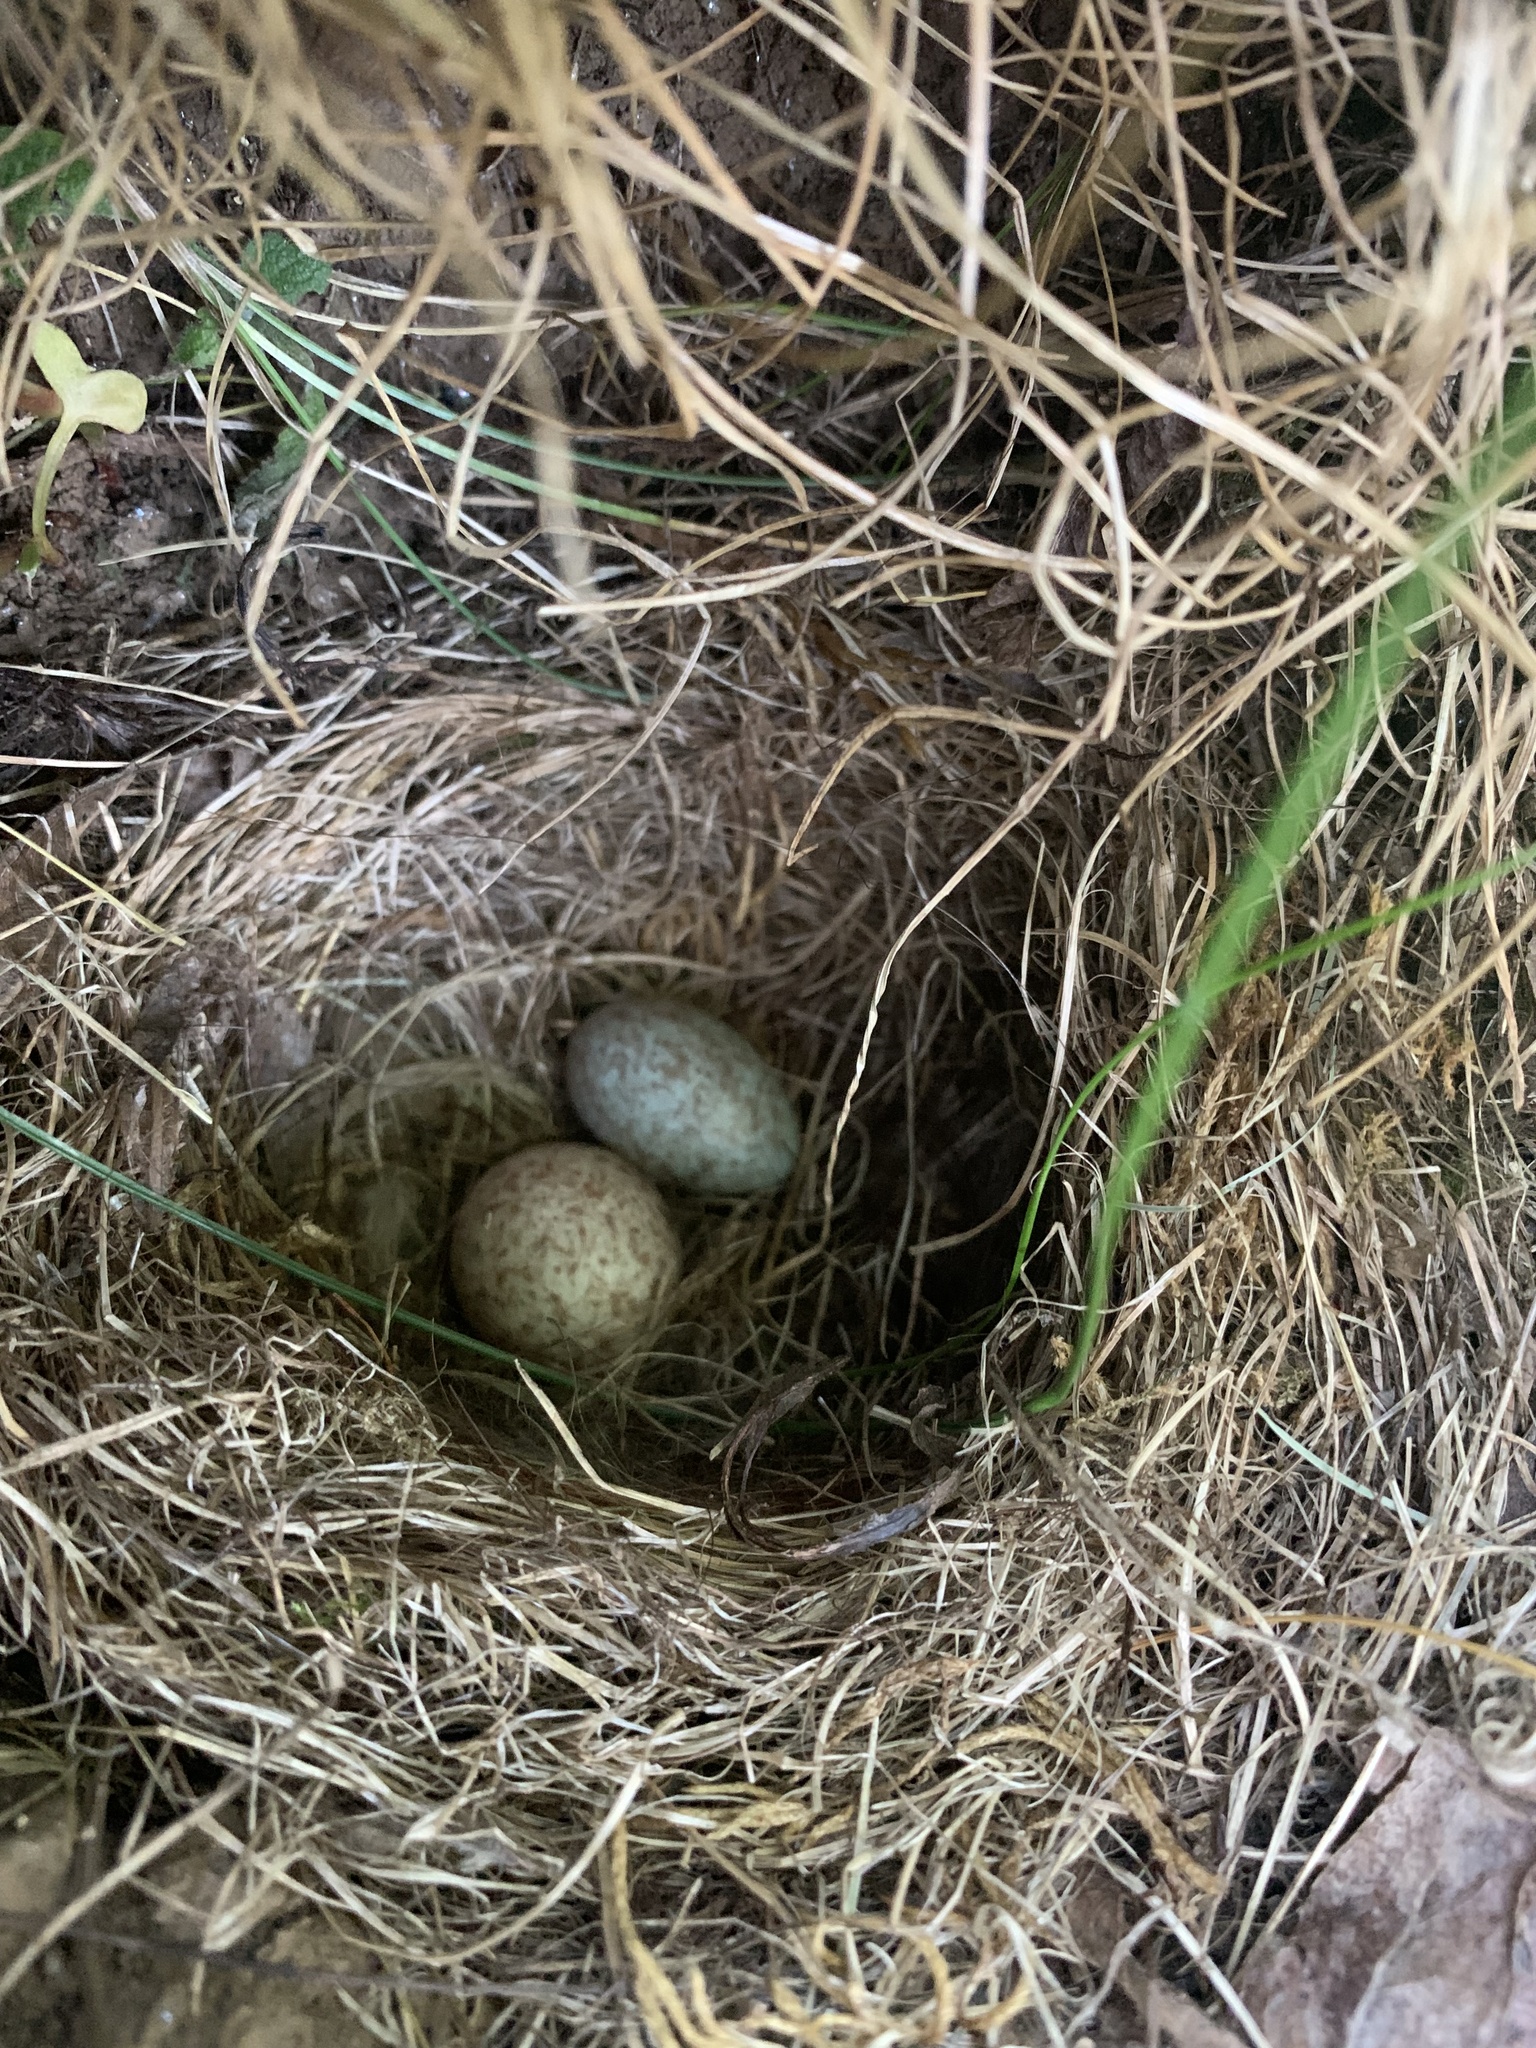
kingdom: Animalia
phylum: Chordata
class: Aves
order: Passeriformes
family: Passerellidae
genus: Zonotrichia
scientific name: Zonotrichia capensis
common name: Rufous-collared sparrow
